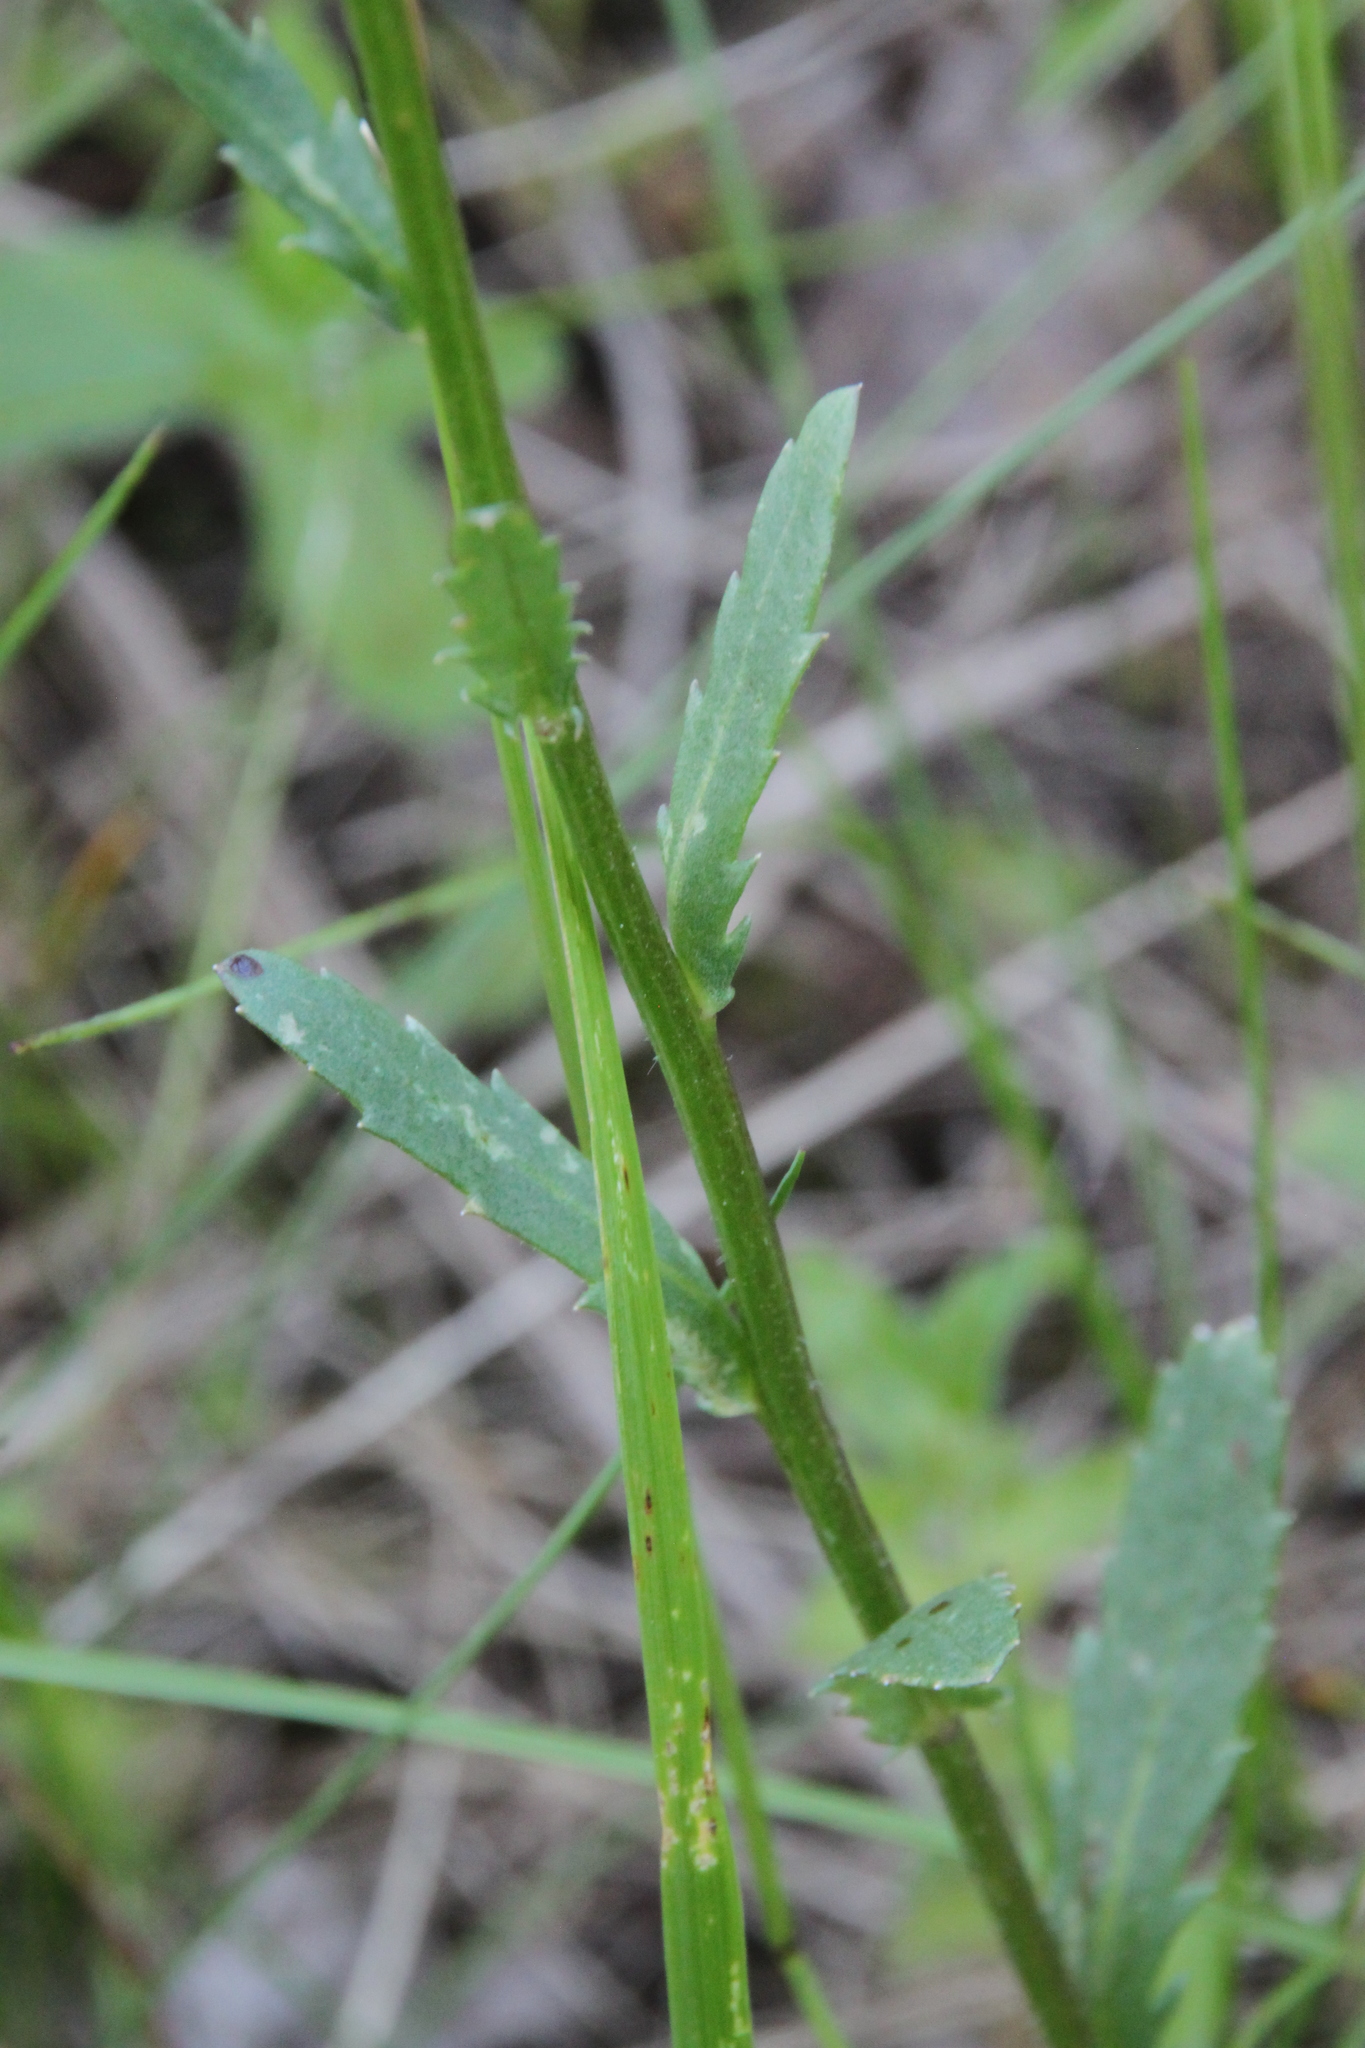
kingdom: Plantae
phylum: Tracheophyta
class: Magnoliopsida
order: Asterales
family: Asteraceae
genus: Leucanthemum
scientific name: Leucanthemum vulgare
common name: Oxeye daisy
